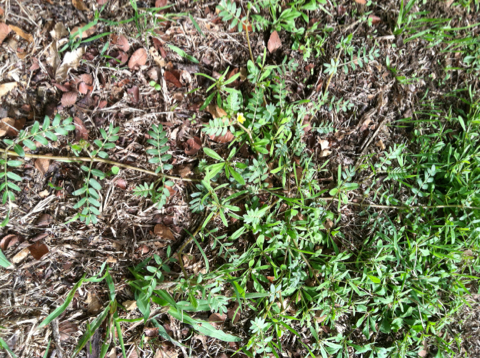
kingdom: Plantae
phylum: Tracheophyta
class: Magnoliopsida
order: Zygophyllales
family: Zygophyllaceae
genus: Tribulus
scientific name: Tribulus terrestris
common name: Puncturevine
